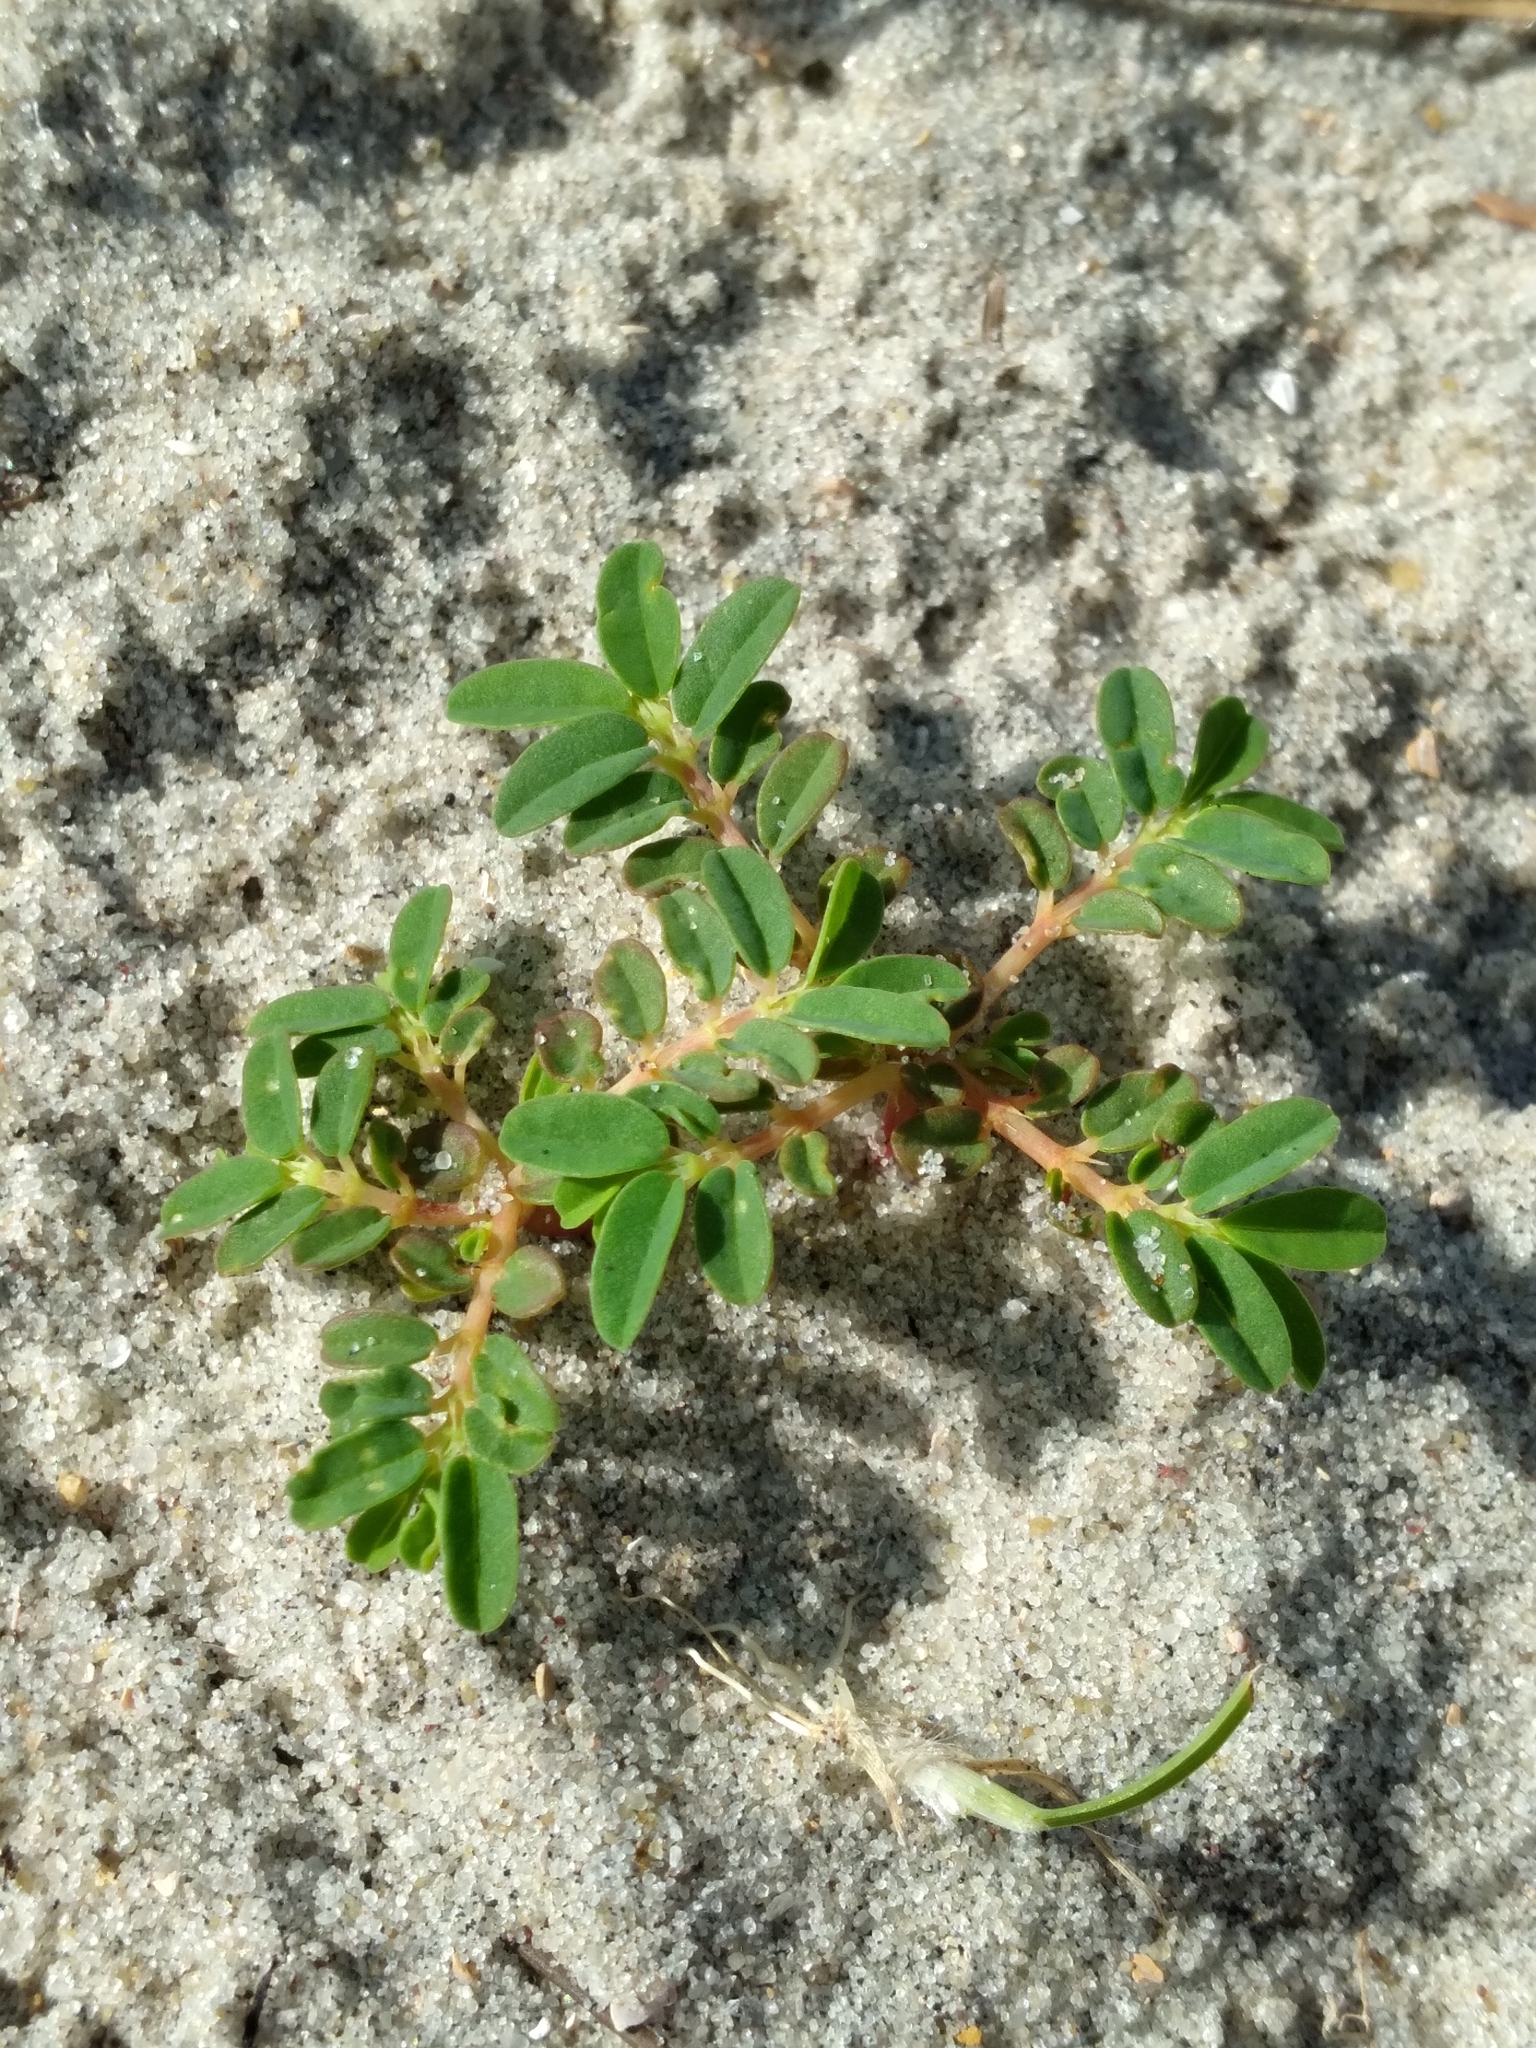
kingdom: Plantae
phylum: Tracheophyta
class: Magnoliopsida
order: Malpighiales
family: Euphorbiaceae
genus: Euphorbia
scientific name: Euphorbia bombensis
